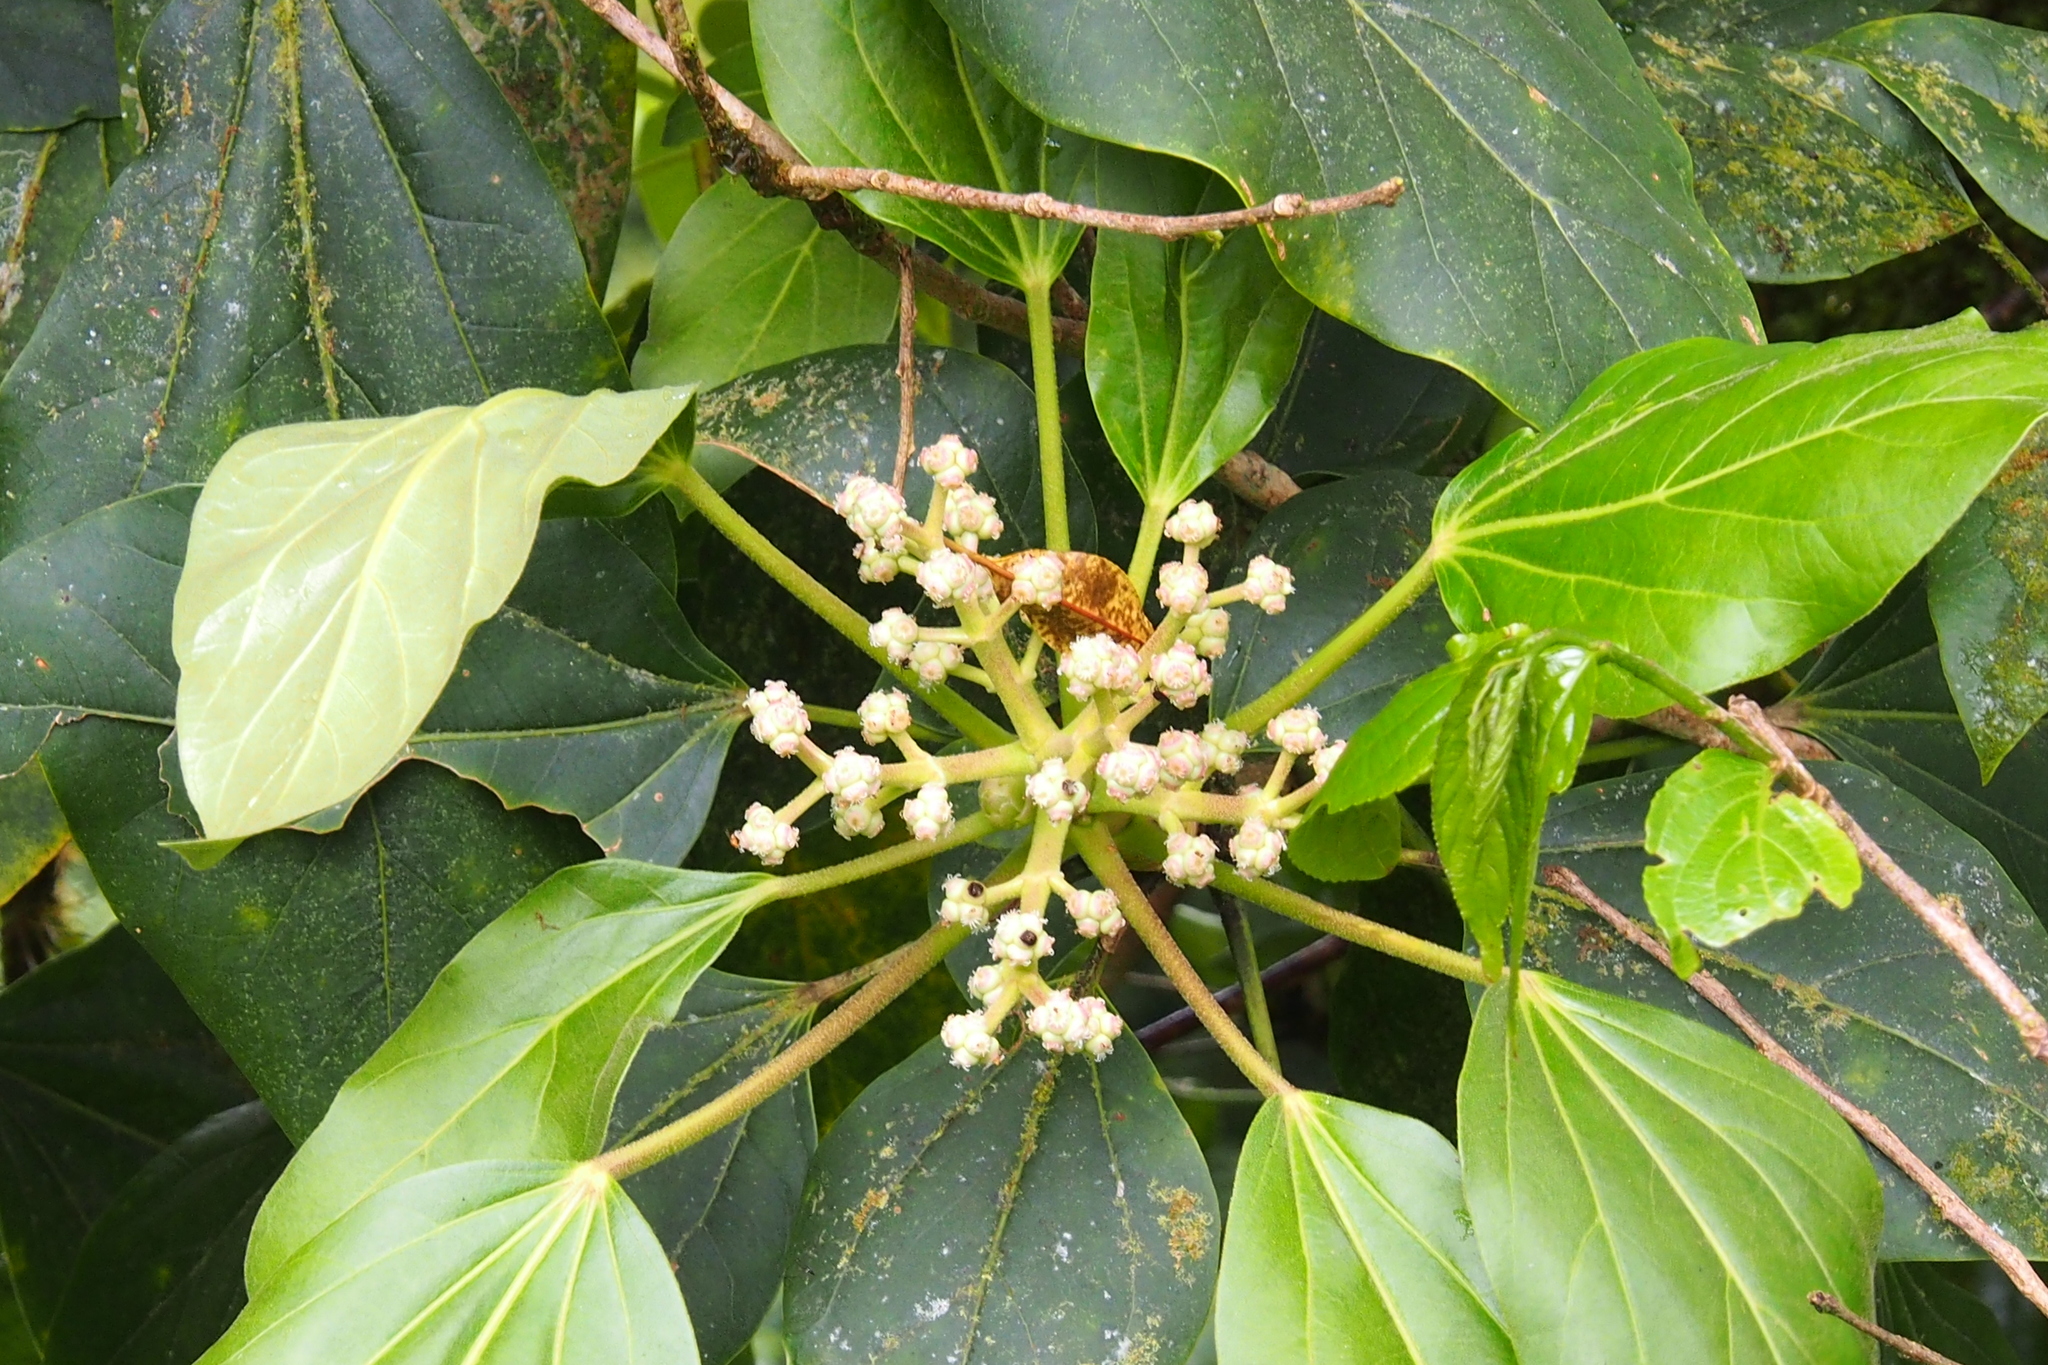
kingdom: Plantae
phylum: Tracheophyta
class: Magnoliopsida
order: Apiales
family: Araliaceae
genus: Oreopanax
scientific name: Oreopanax donnell-smithii
